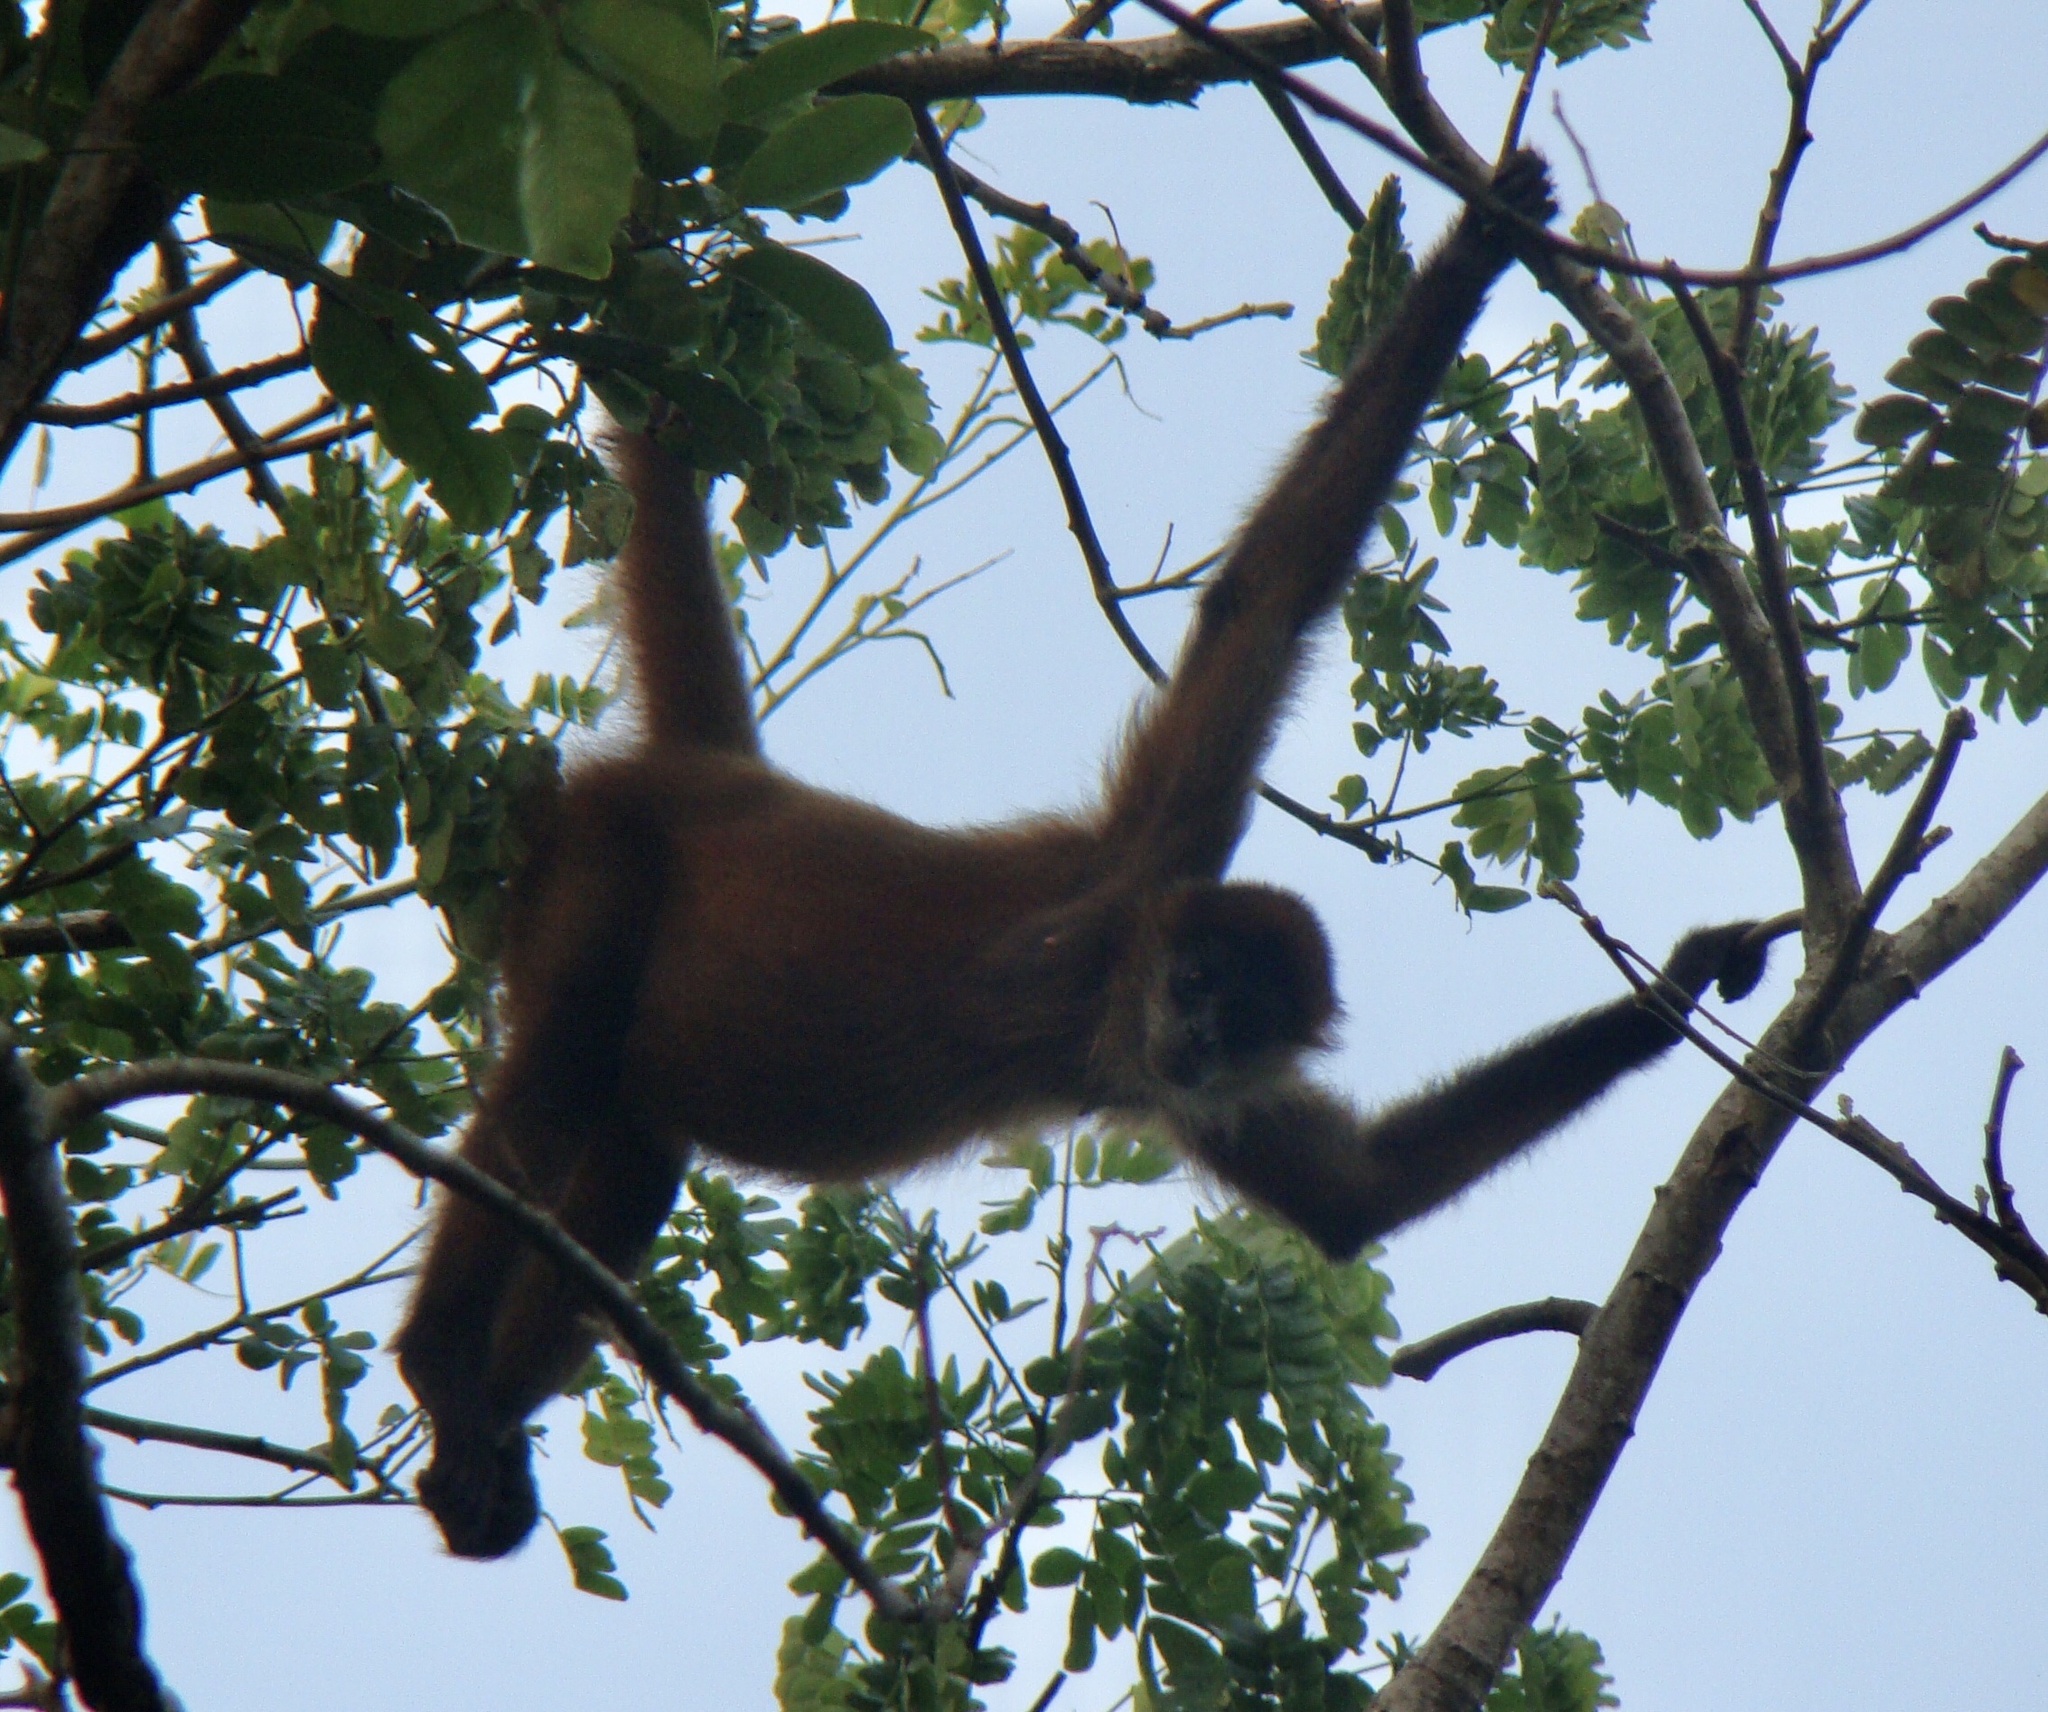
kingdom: Animalia
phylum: Chordata
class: Mammalia
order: Primates
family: Atelidae
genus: Ateles
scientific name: Ateles geoffroyi
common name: Black-handed spider monkey
